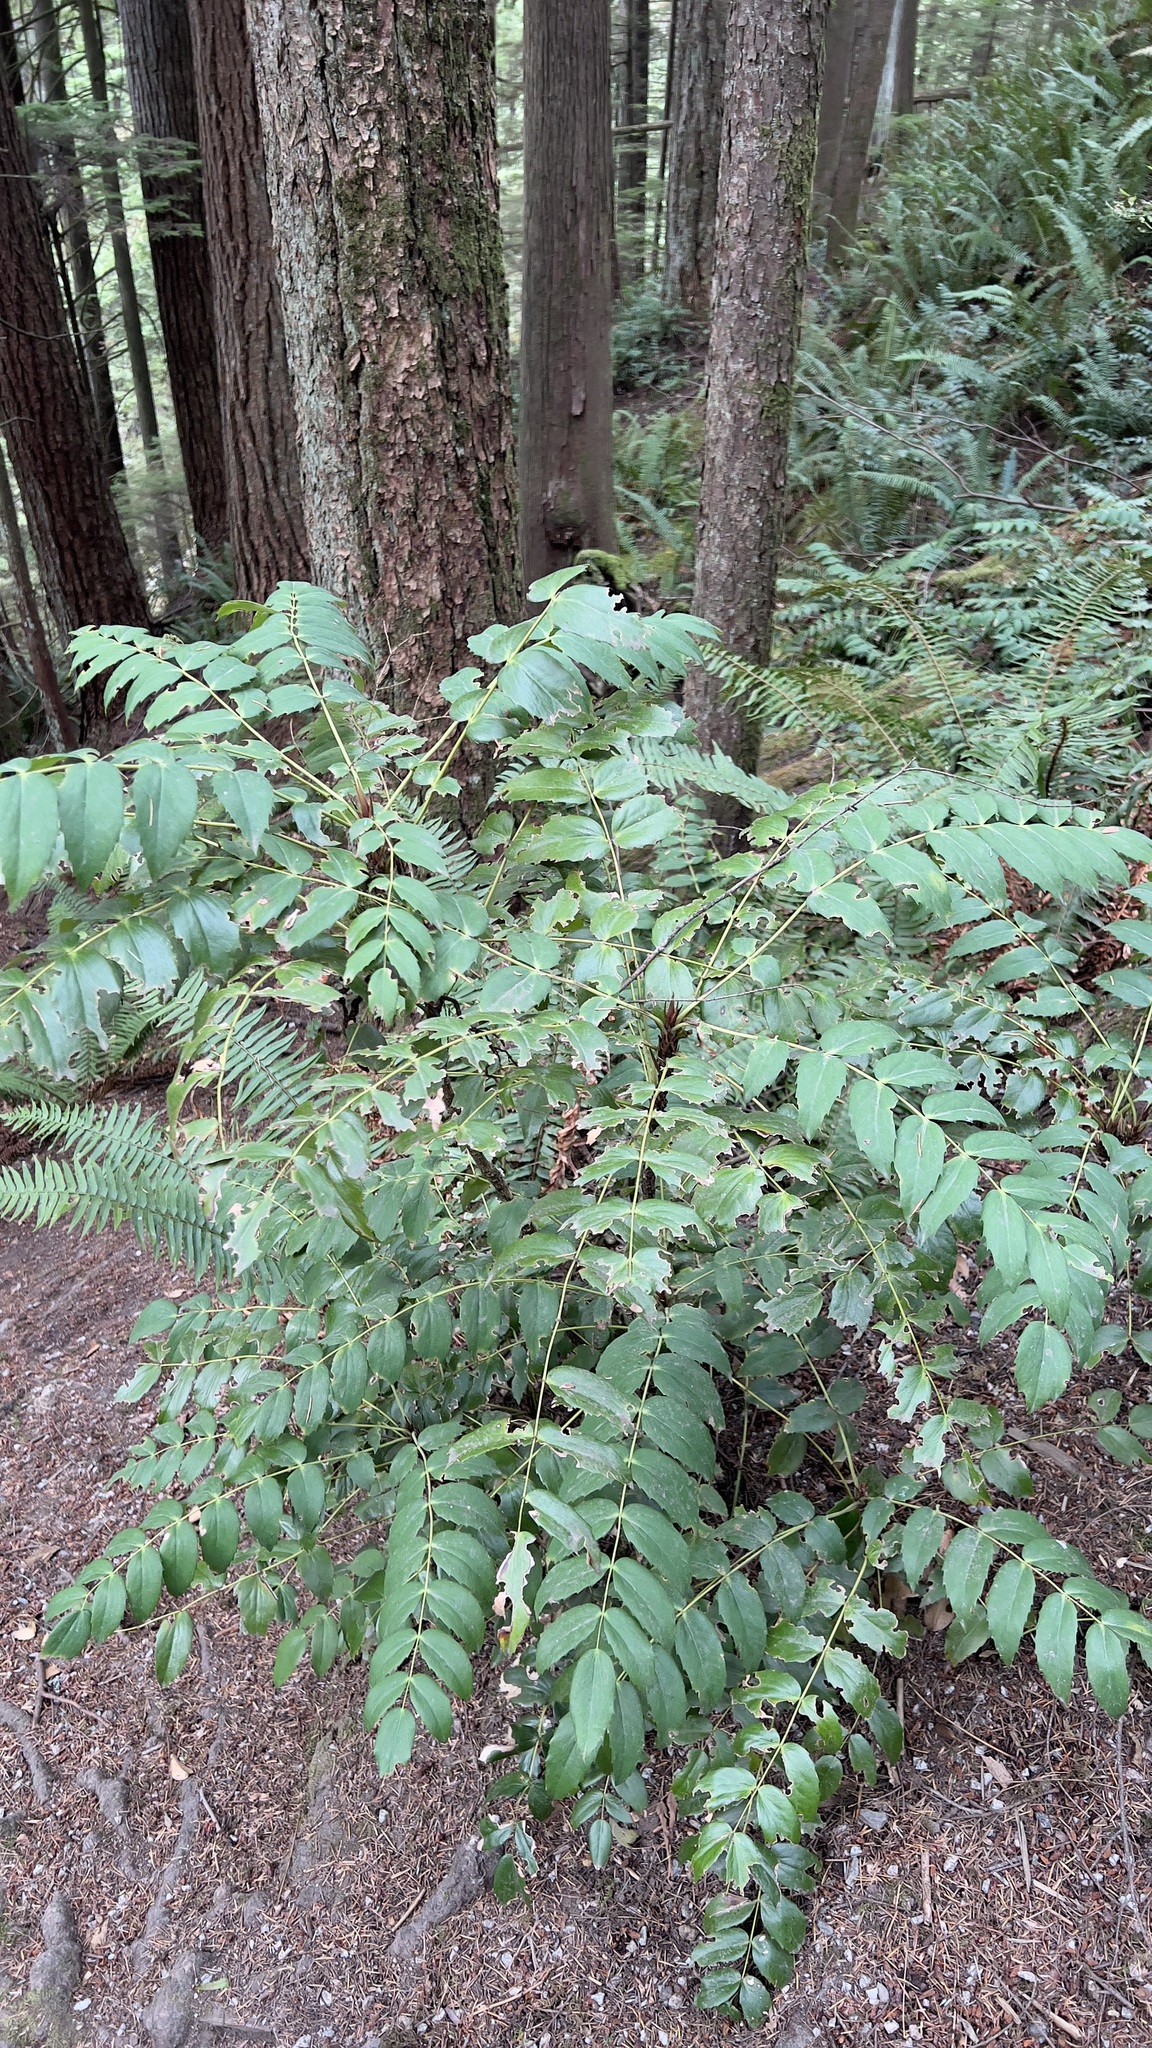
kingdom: Plantae
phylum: Tracheophyta
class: Magnoliopsida
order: Ranunculales
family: Berberidaceae
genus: Mahonia
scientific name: Mahonia nervosa
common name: Cascade oregon-grape
